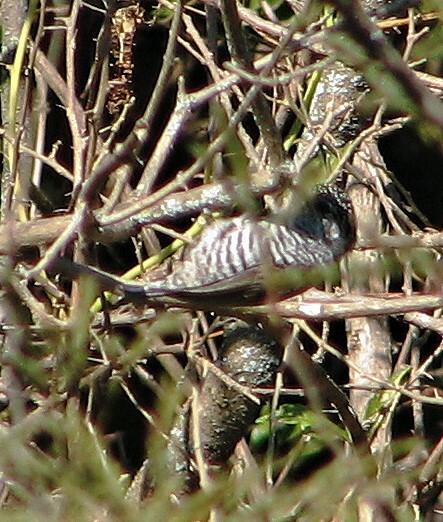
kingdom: Animalia
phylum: Chordata
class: Aves
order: Piciformes
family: Picidae
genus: Picumnus
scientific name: Picumnus cirratus
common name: White-barred piculet
